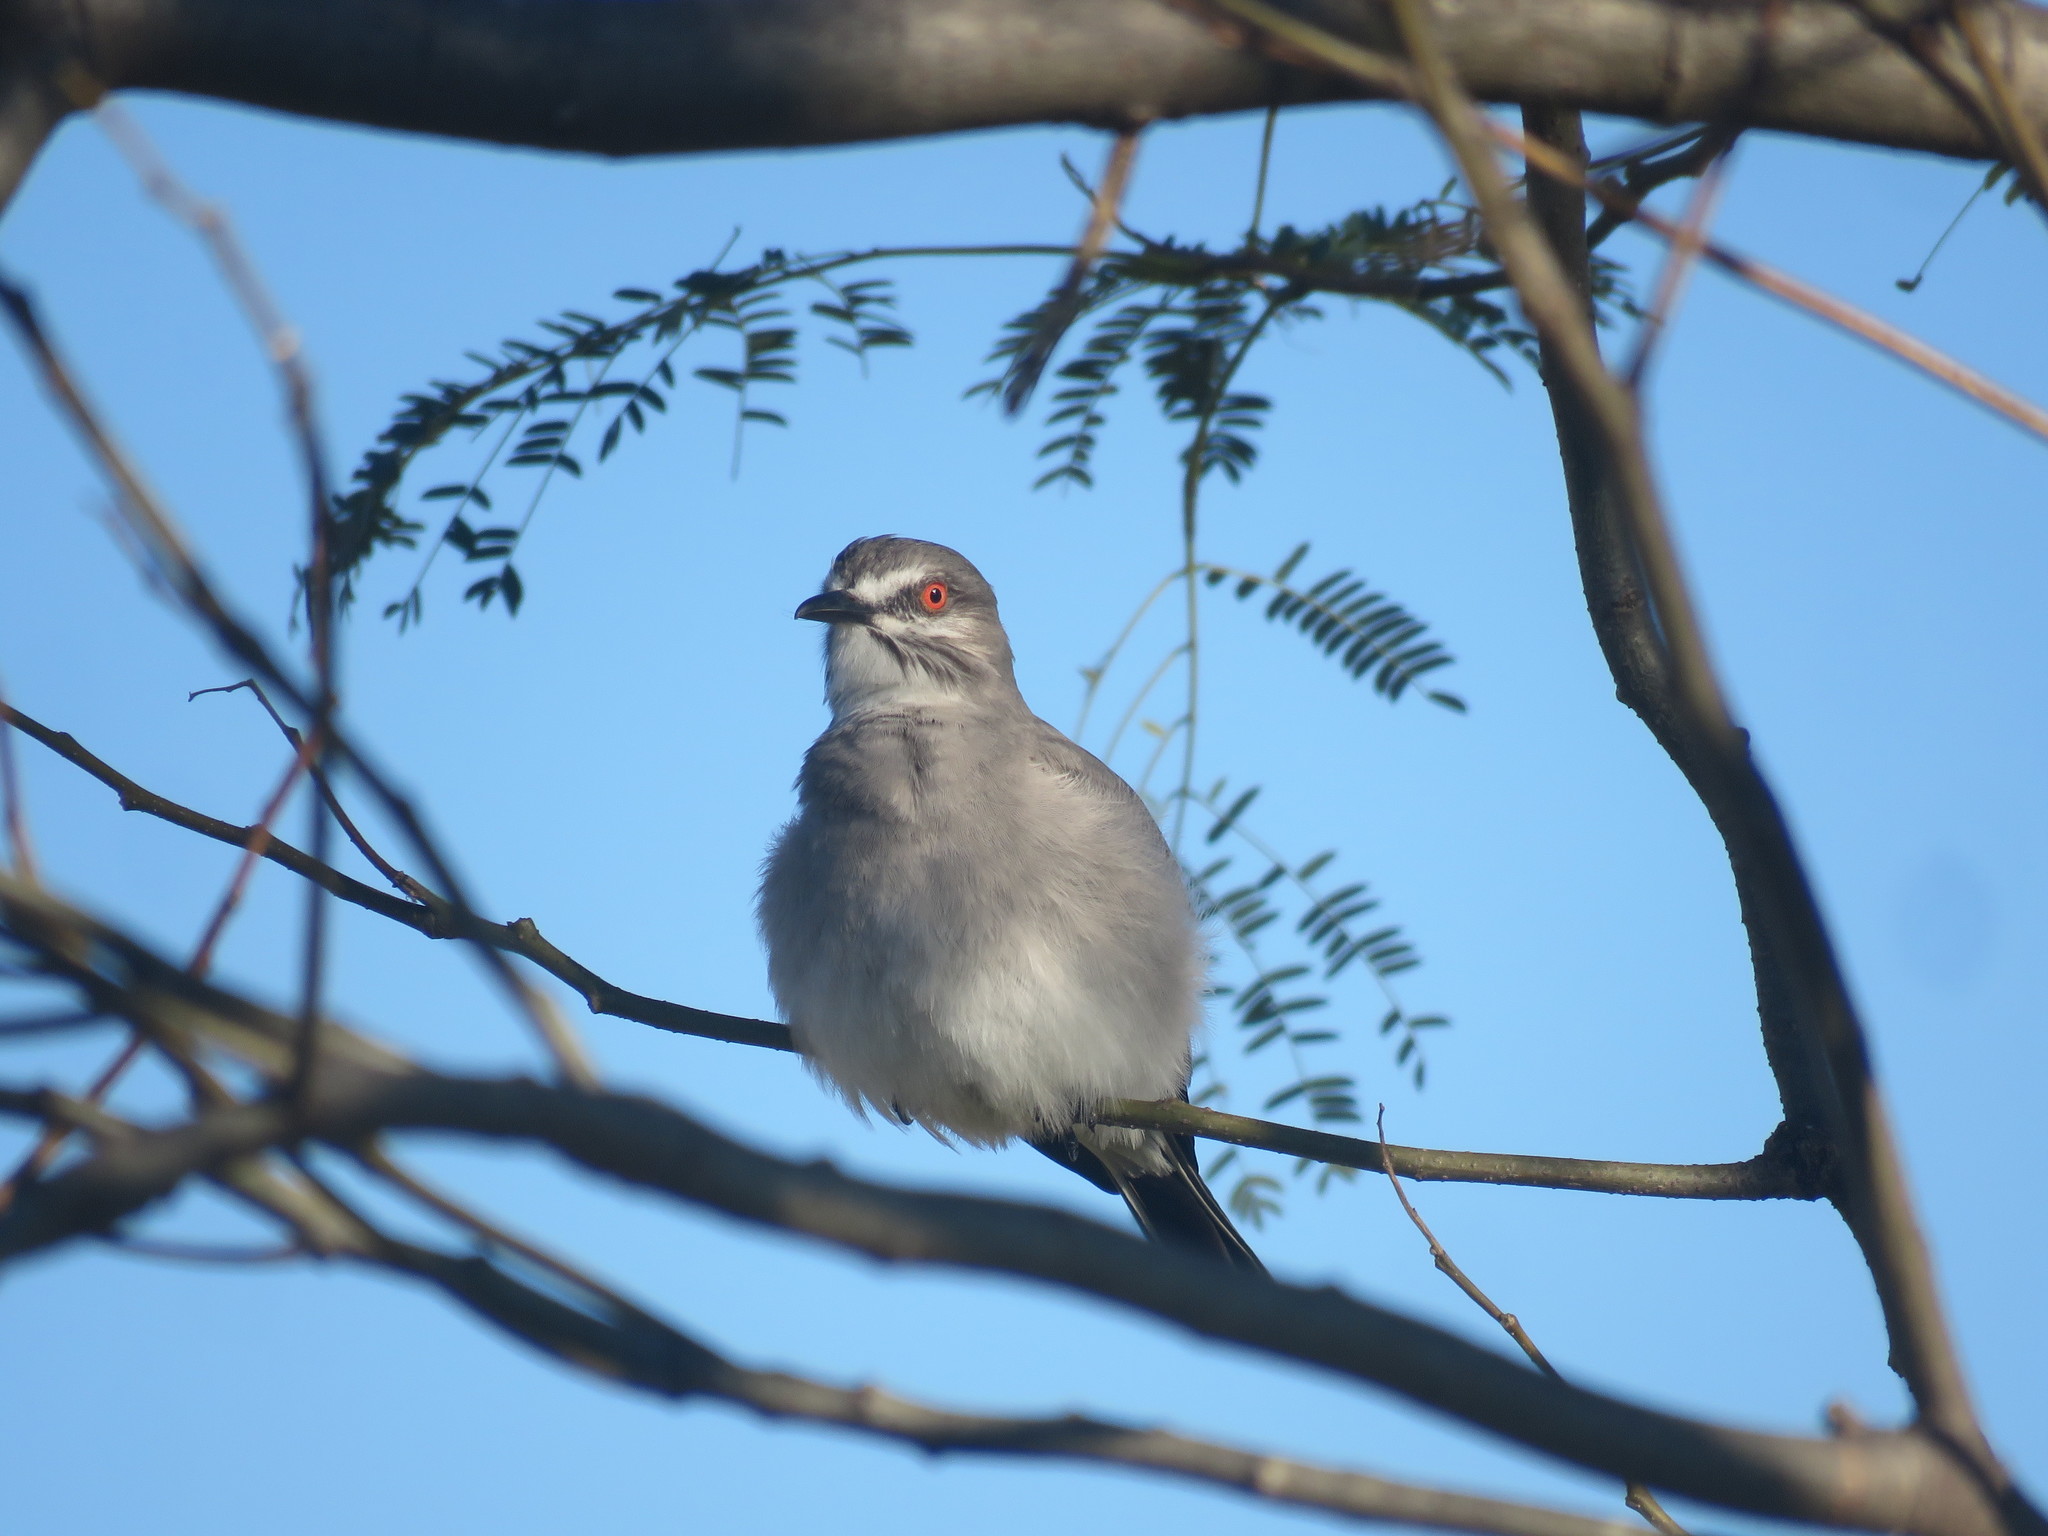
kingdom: Animalia
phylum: Chordata
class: Aves
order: Passeriformes
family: Tyrannidae
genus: Xolmis
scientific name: Xolmis cinereus
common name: Grey monjita
